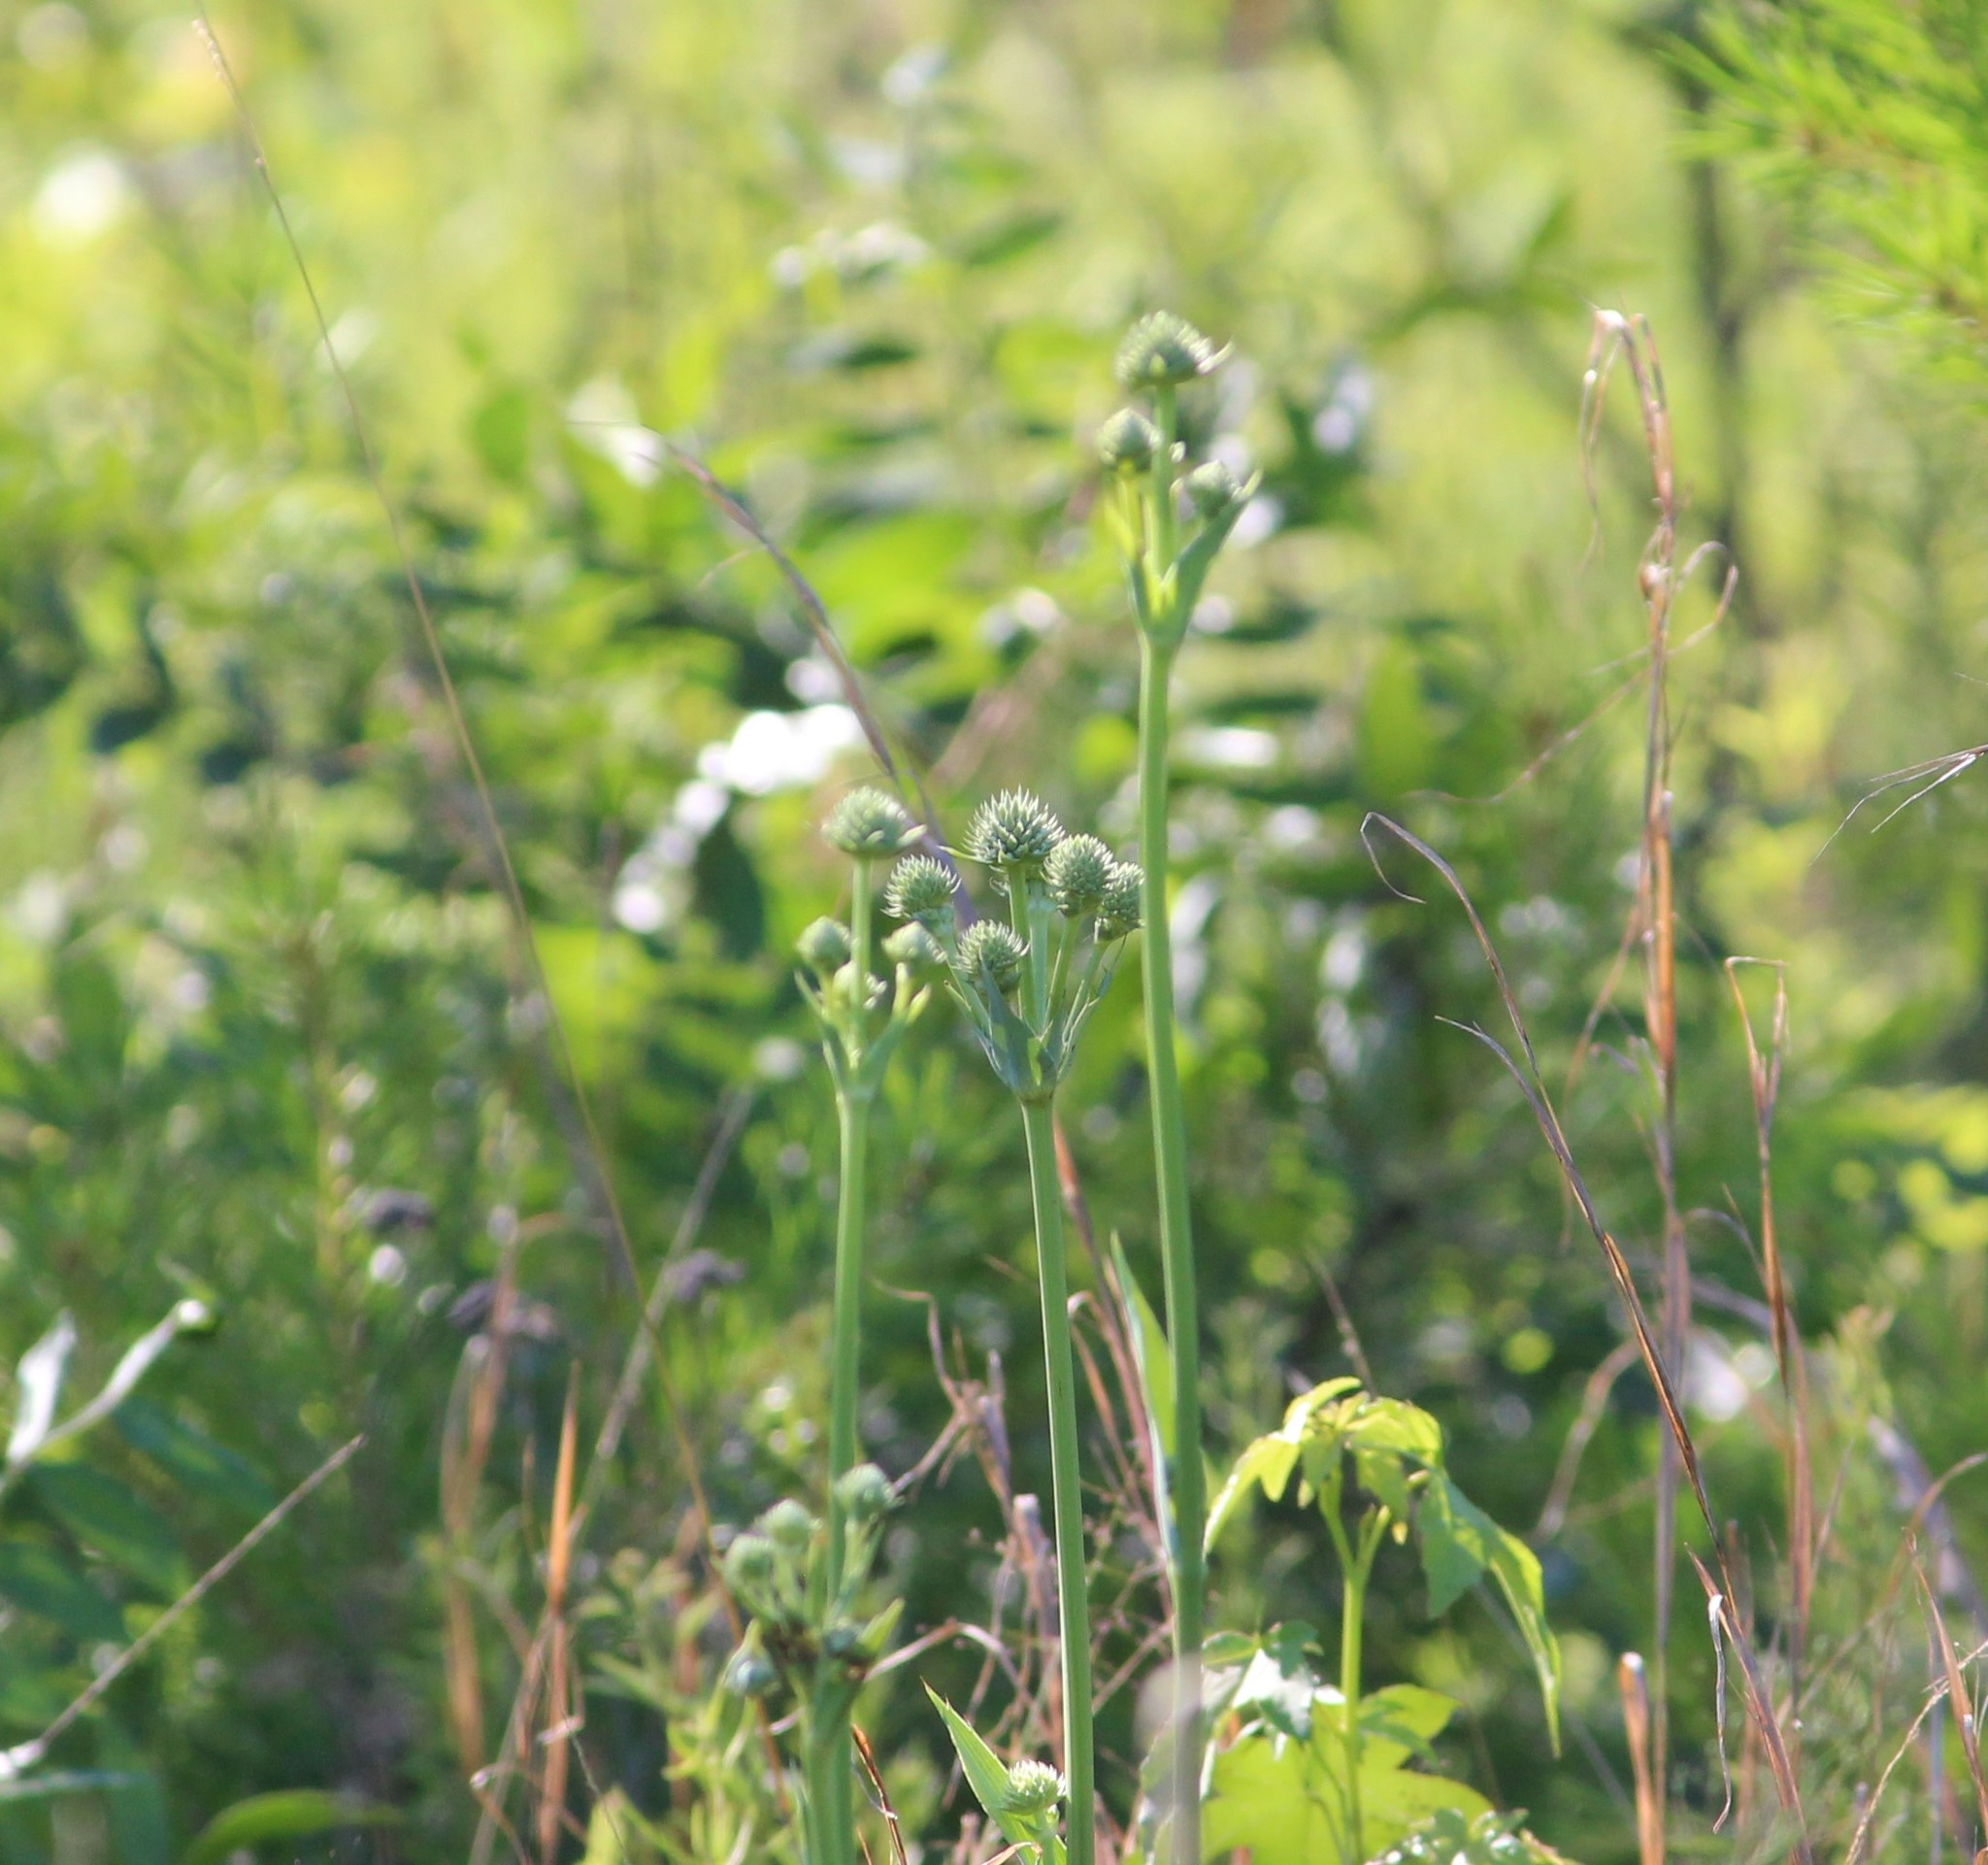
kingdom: Plantae
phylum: Tracheophyta
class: Magnoliopsida
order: Apiales
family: Apiaceae
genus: Eryngium
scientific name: Eryngium yuccifolium
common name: Button eryngo
